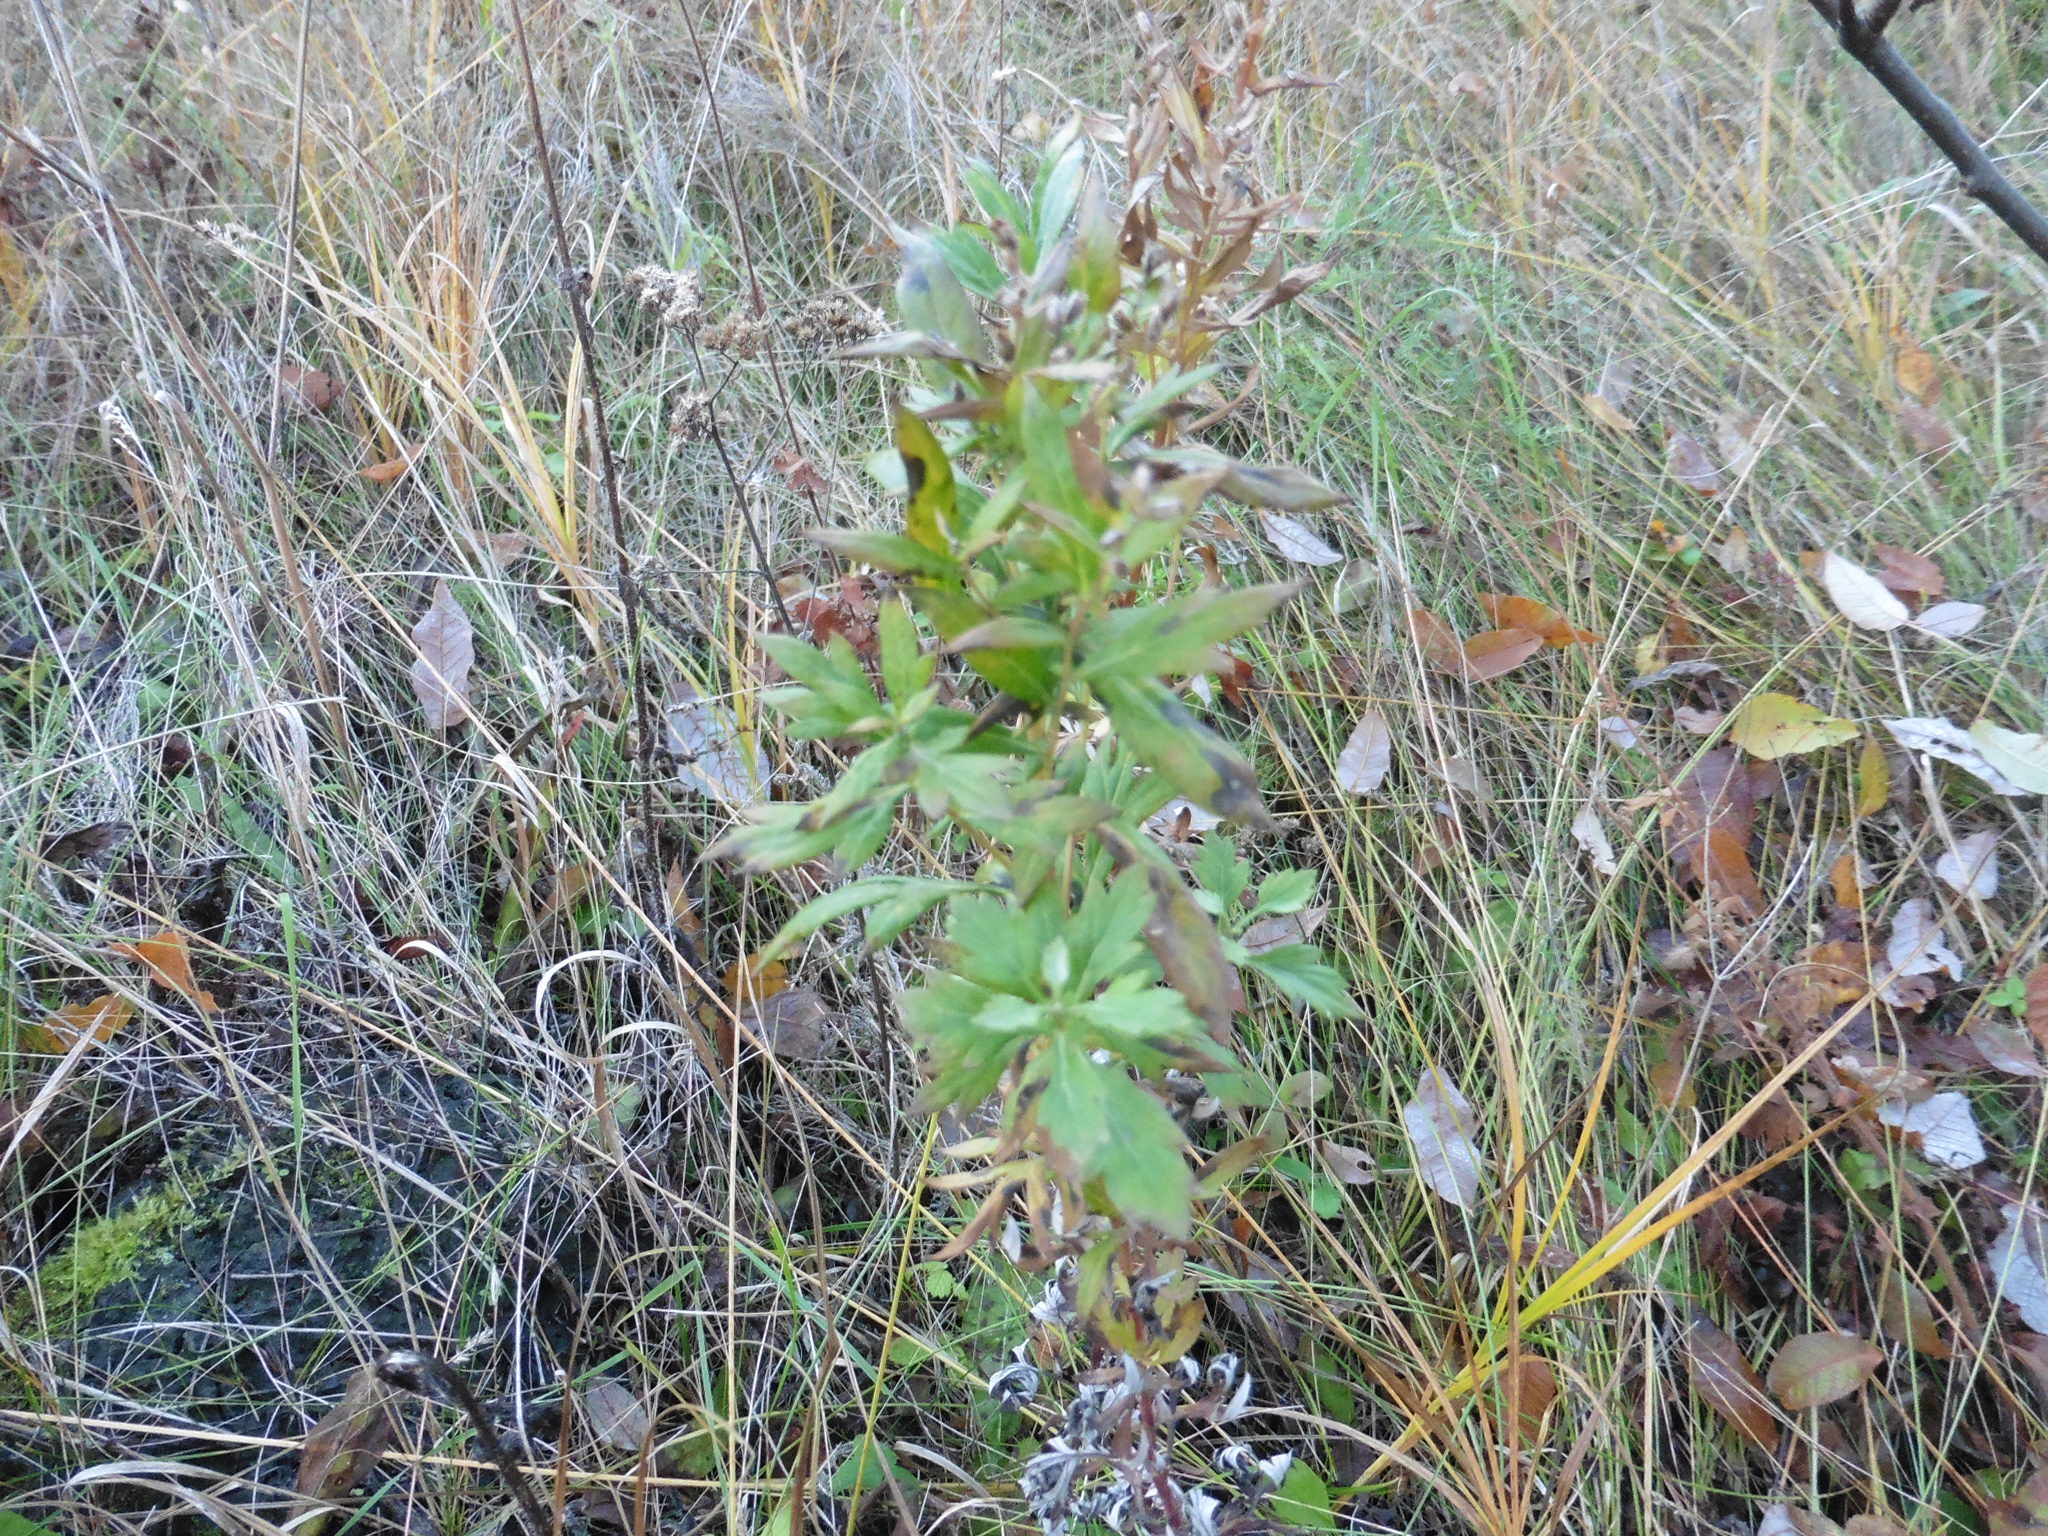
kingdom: Plantae
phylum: Tracheophyta
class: Magnoliopsida
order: Asterales
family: Asteraceae
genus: Artemisia
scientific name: Artemisia vulgaris
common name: Mugwort
